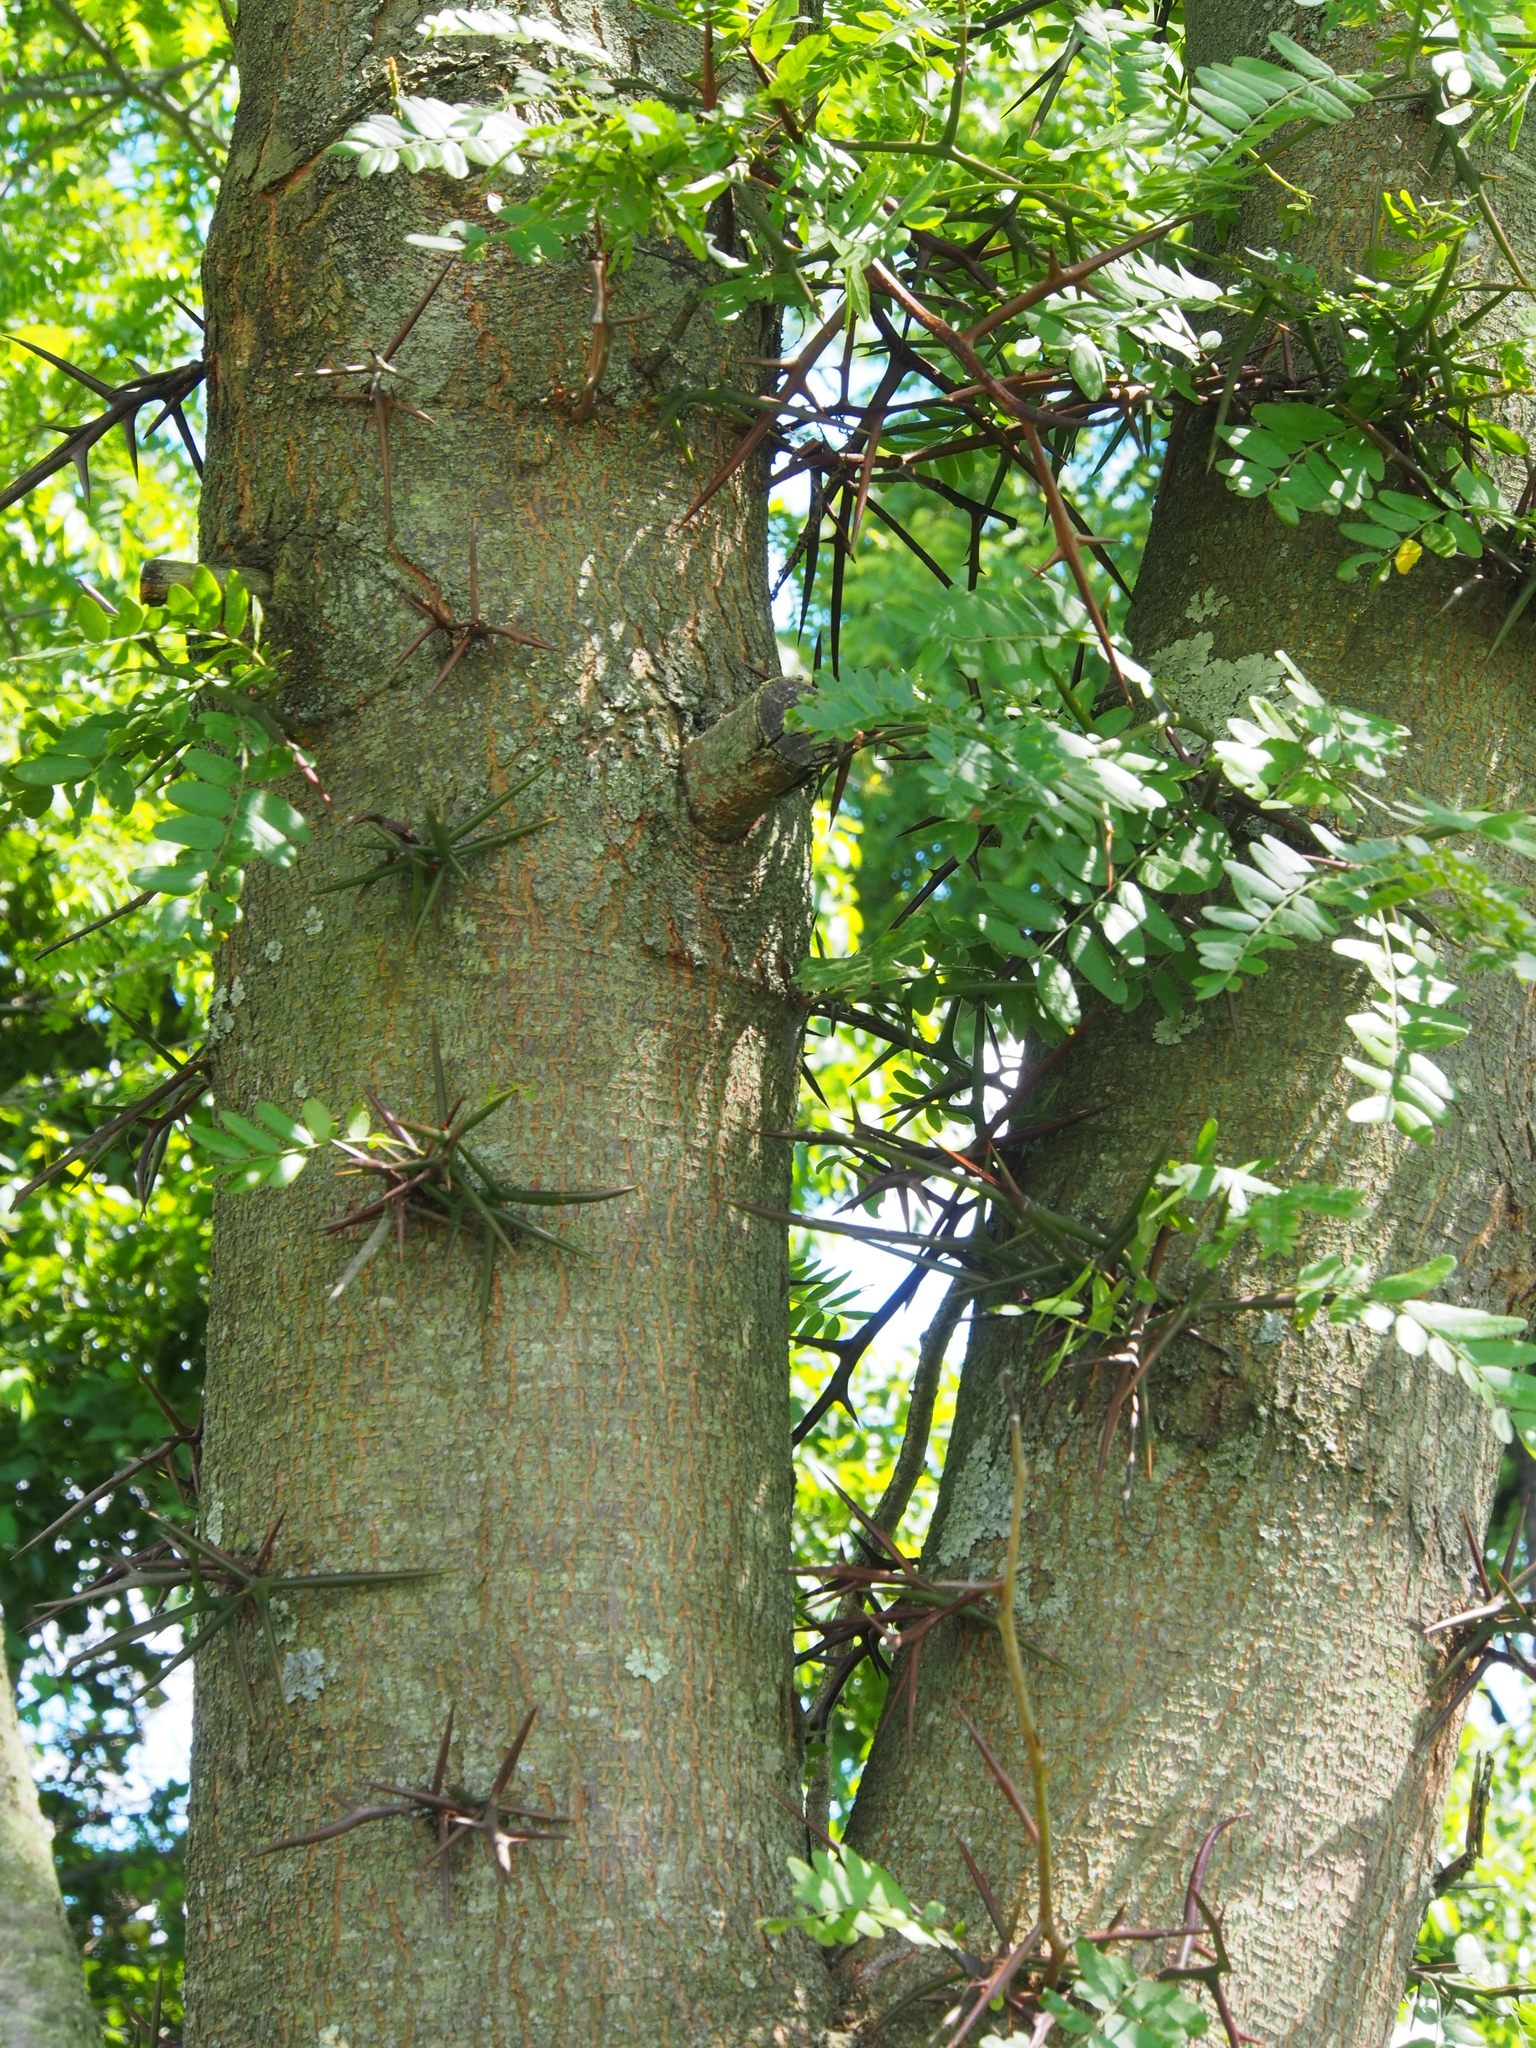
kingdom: Plantae
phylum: Tracheophyta
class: Magnoliopsida
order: Fabales
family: Fabaceae
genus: Robinia
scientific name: Robinia pseudoacacia
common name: Black locust
